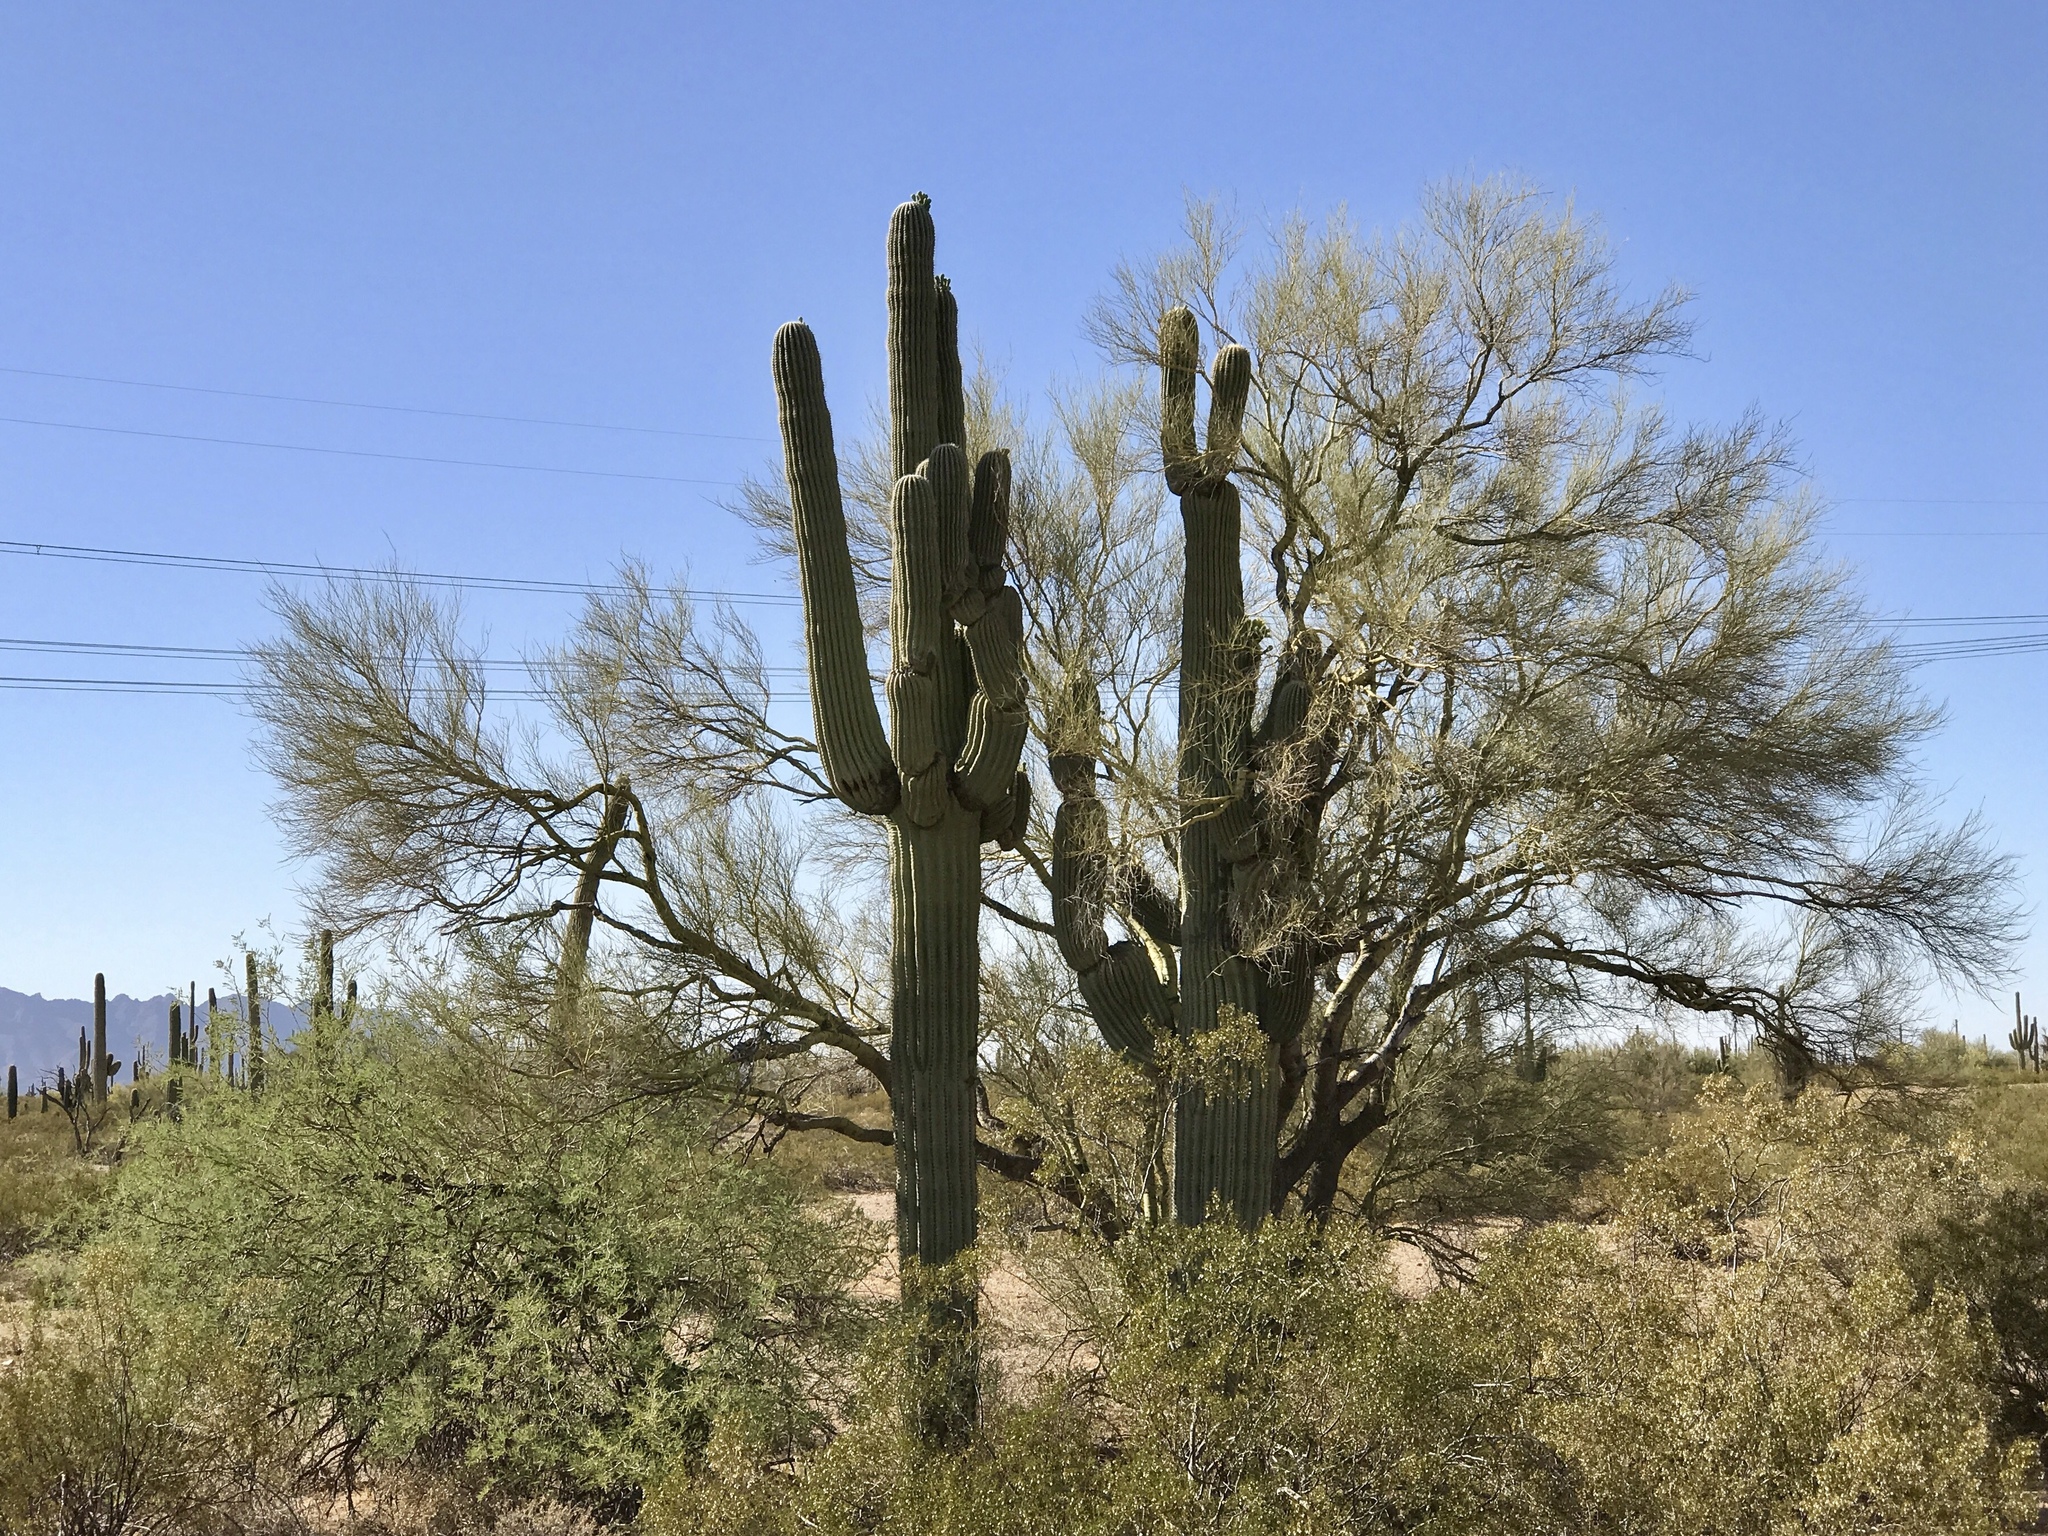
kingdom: Plantae
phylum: Tracheophyta
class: Magnoliopsida
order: Fabales
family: Fabaceae
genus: Parkinsonia
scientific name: Parkinsonia microphylla
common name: Yellow paloverde
